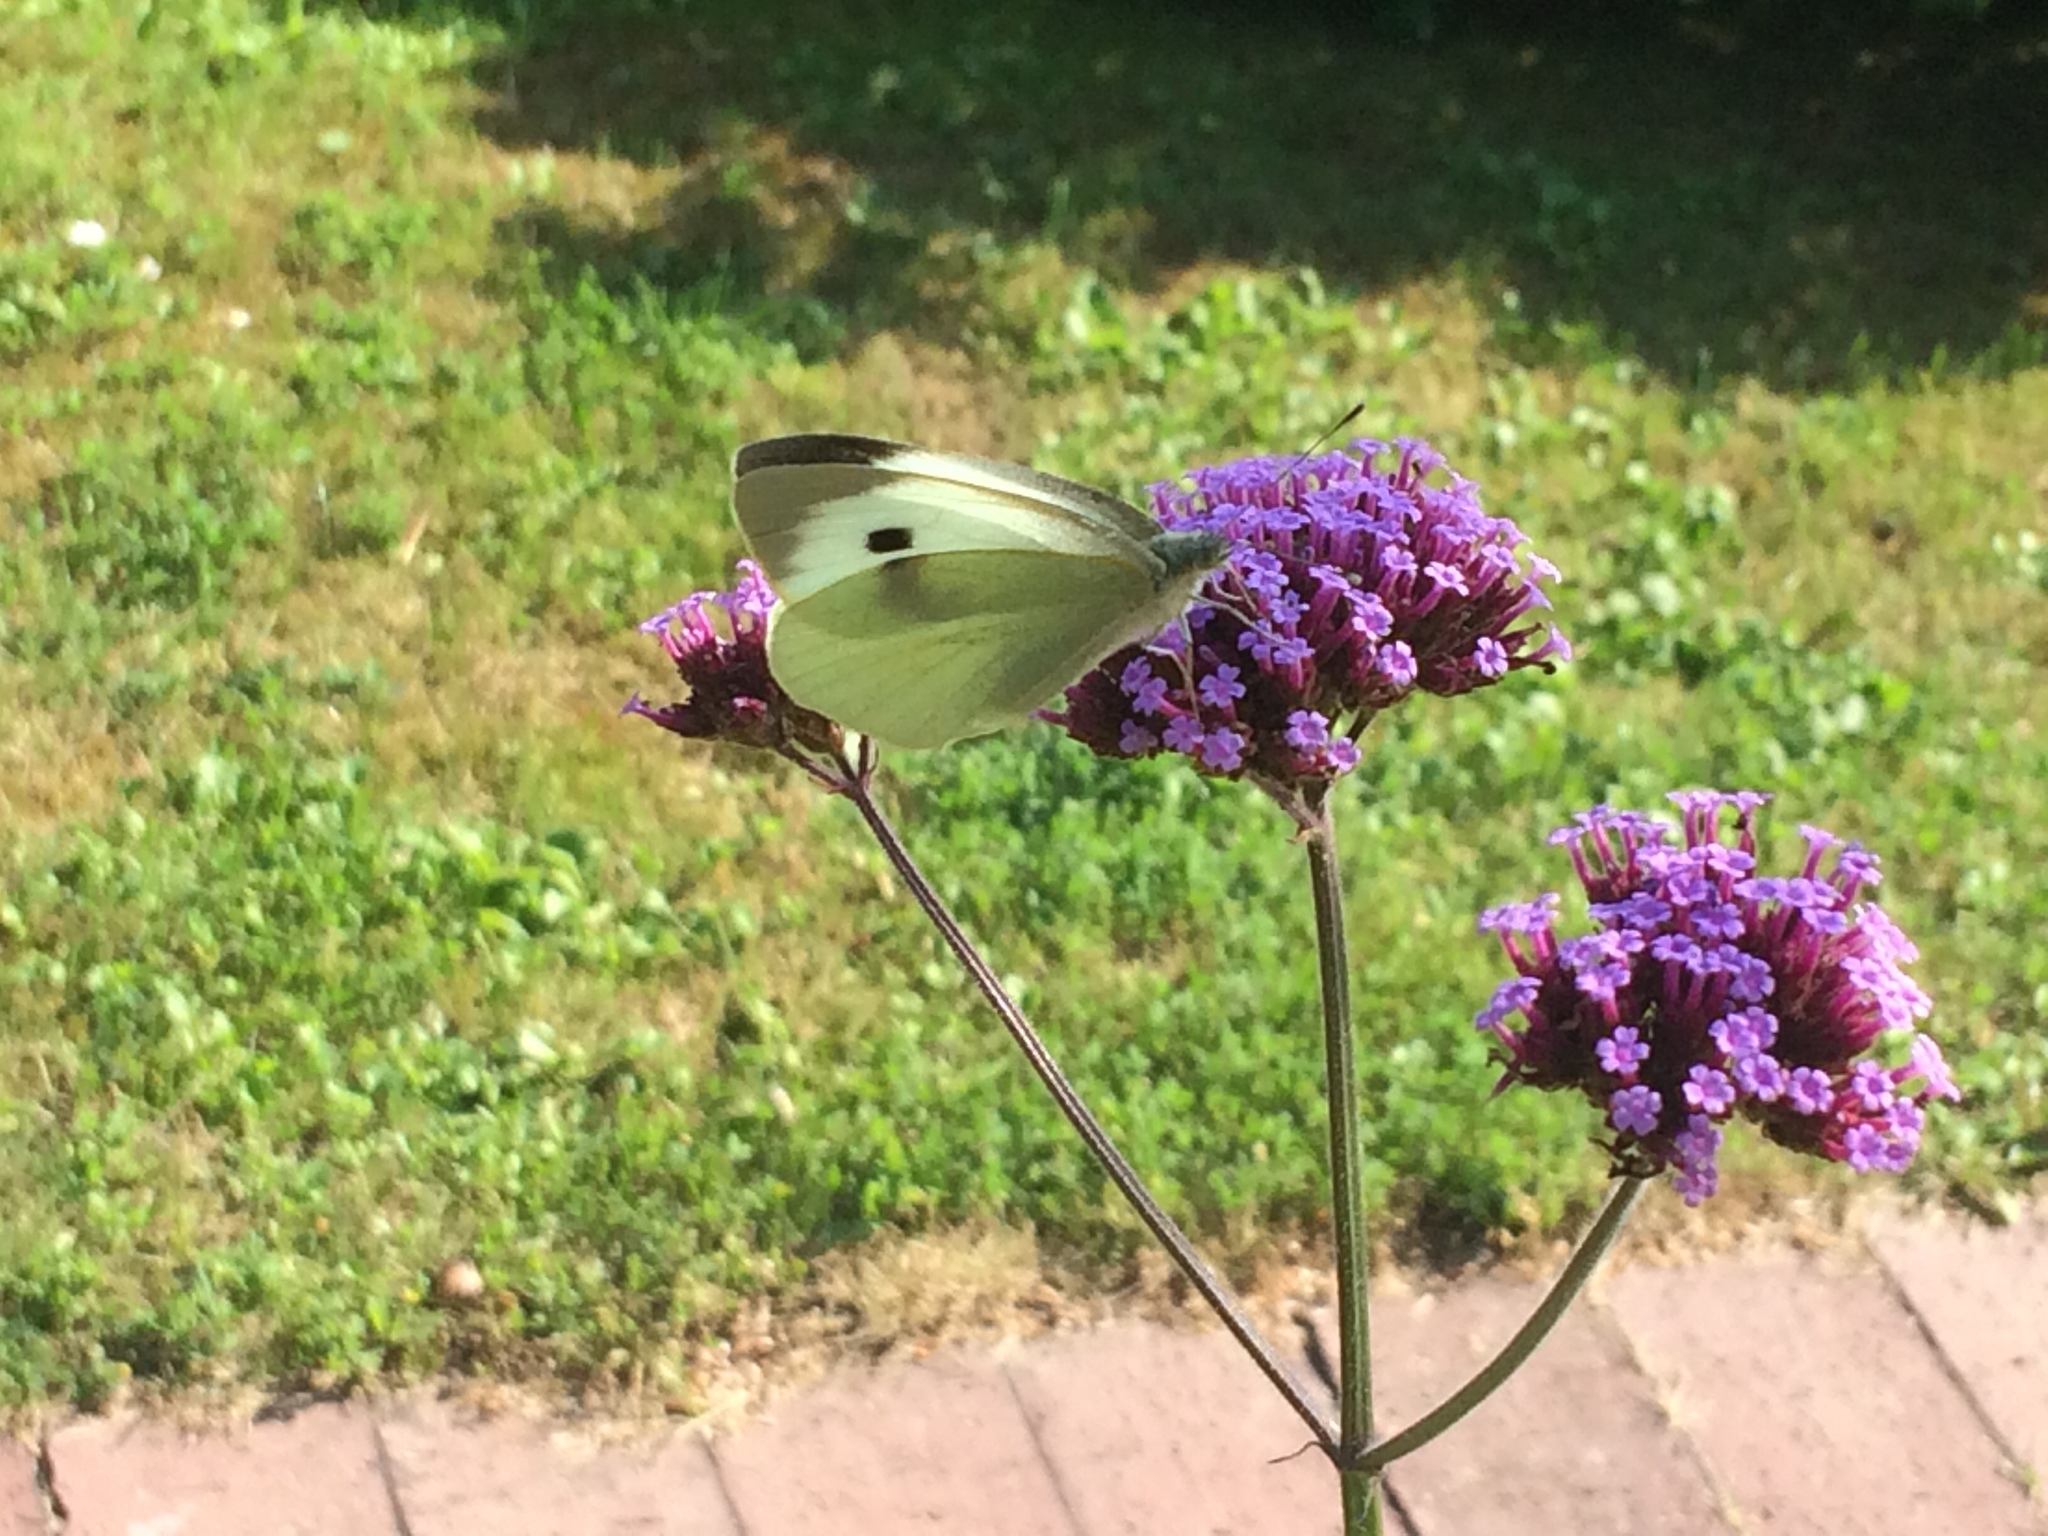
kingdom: Animalia
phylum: Arthropoda
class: Insecta
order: Lepidoptera
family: Pieridae
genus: Pieris
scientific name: Pieris brassicae
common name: Large white
